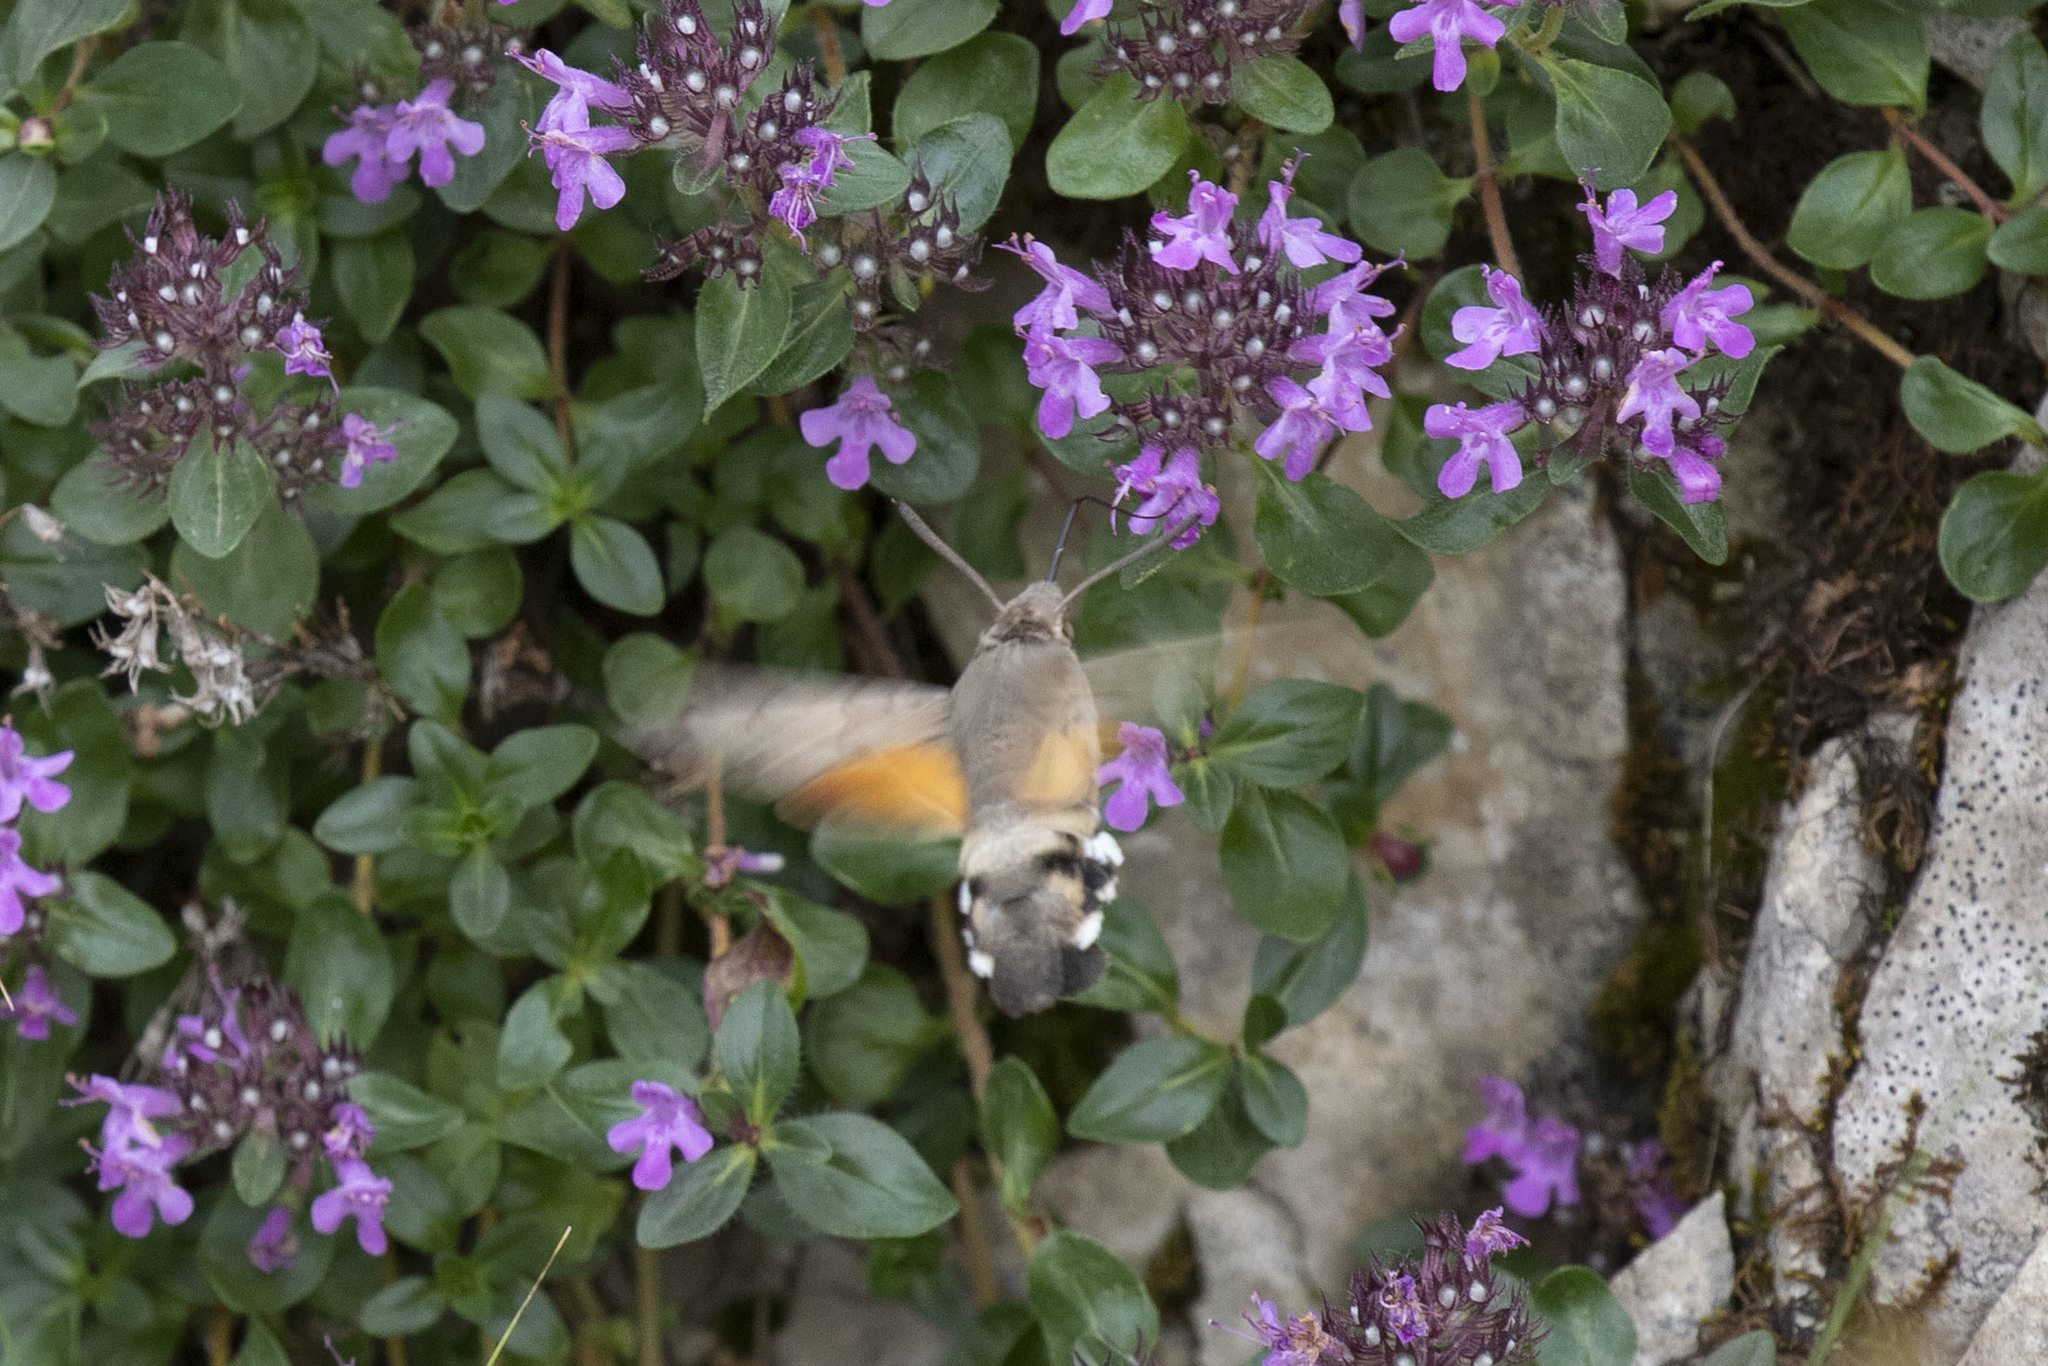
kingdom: Animalia
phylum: Arthropoda
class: Insecta
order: Lepidoptera
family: Sphingidae
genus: Macroglossum
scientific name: Macroglossum stellatarum
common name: Humming-bird hawk-moth
